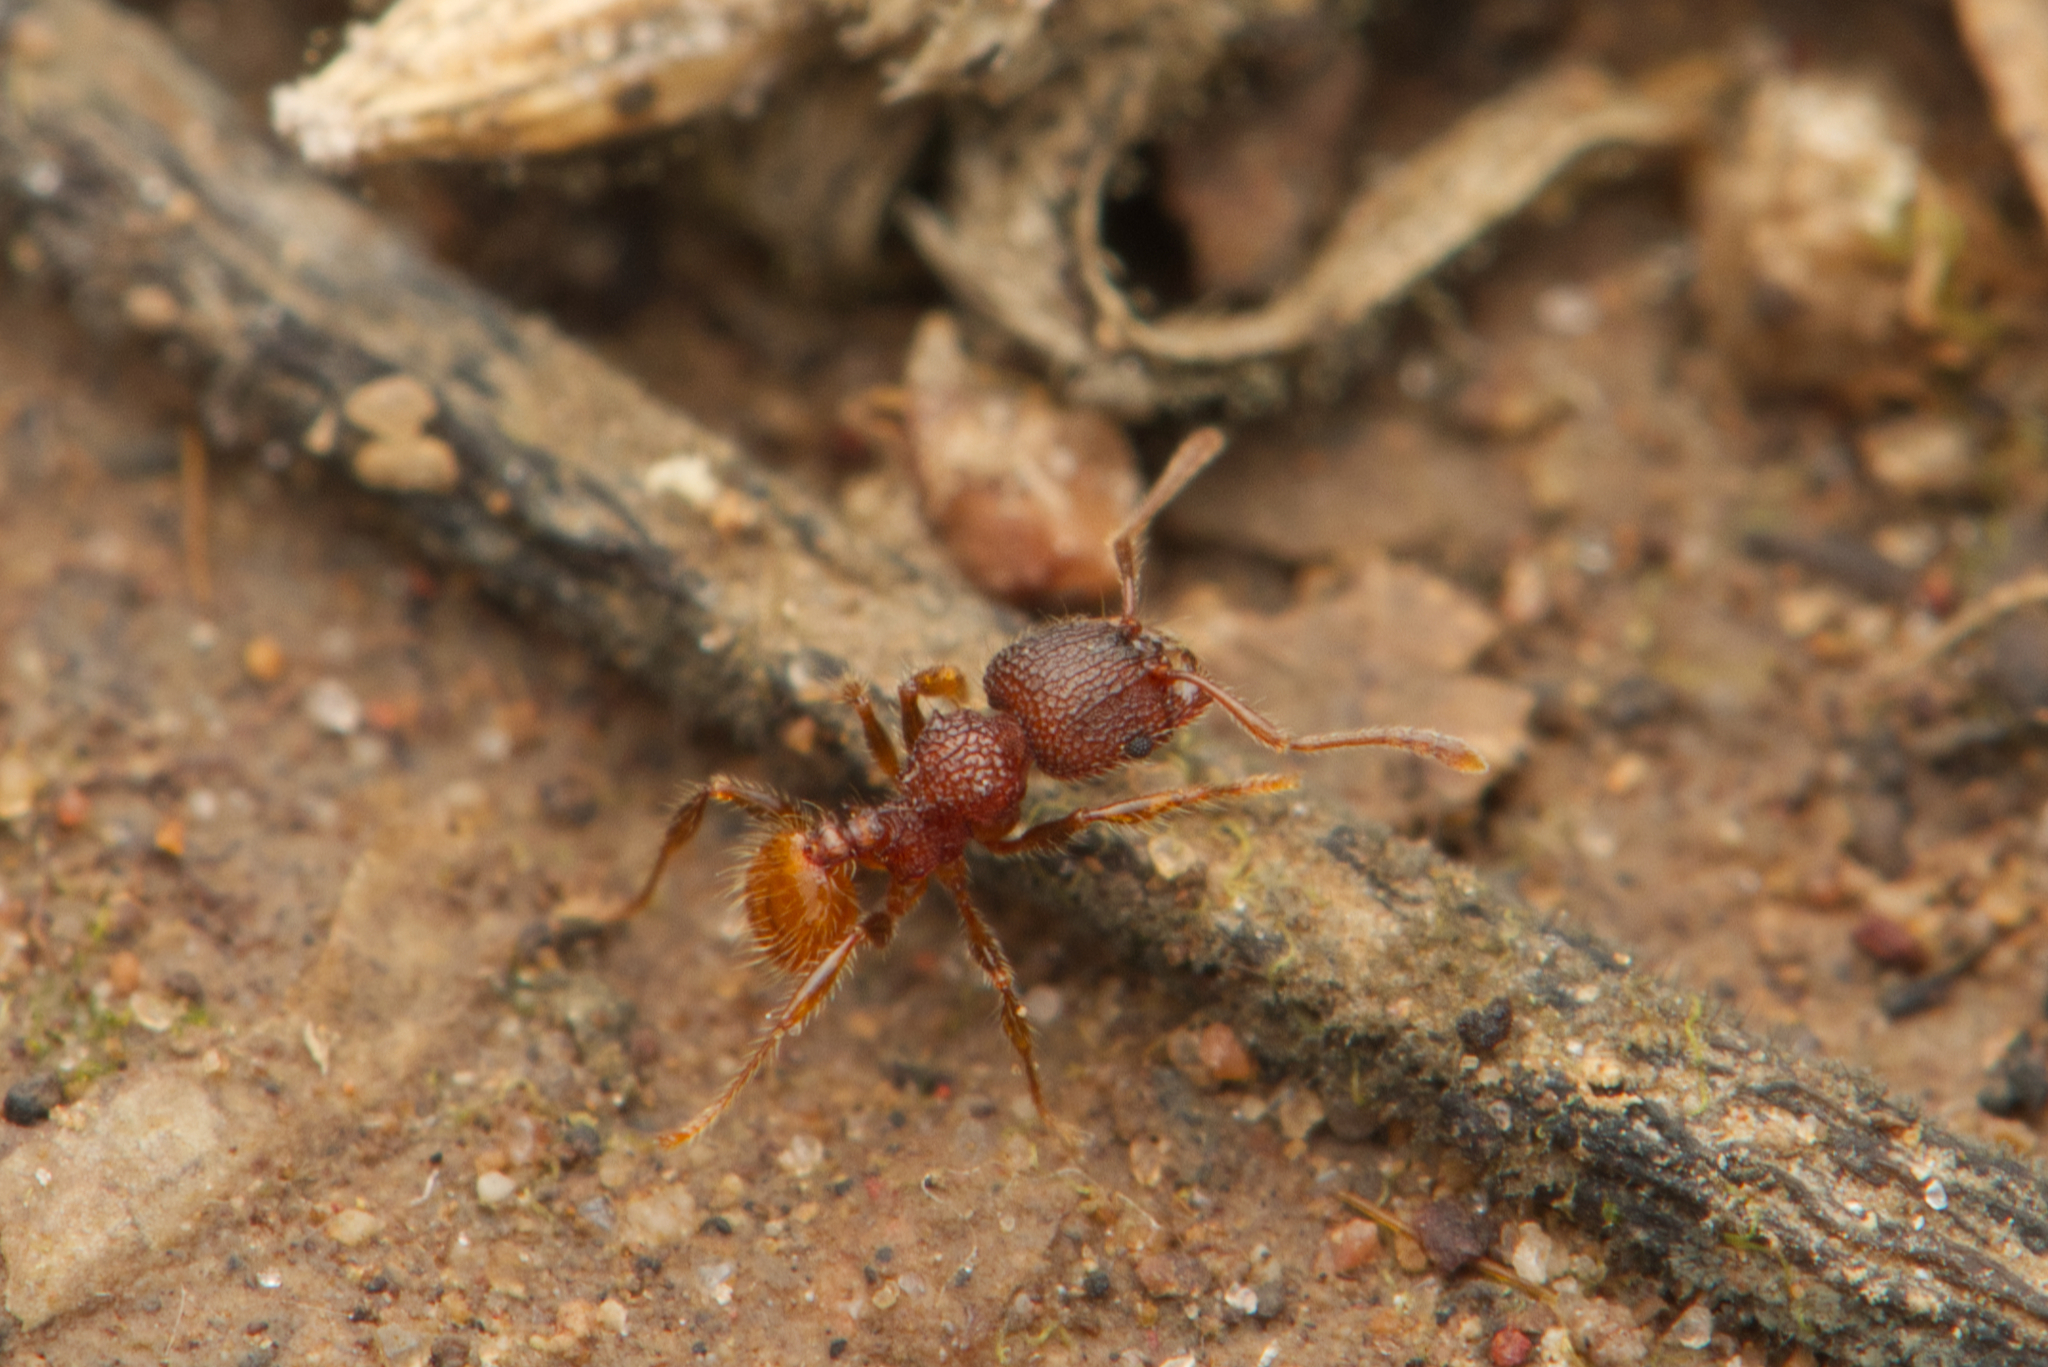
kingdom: Animalia
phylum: Arthropoda
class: Insecta
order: Hymenoptera
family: Formicidae
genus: Pheidole
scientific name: Pheidole longiceps
